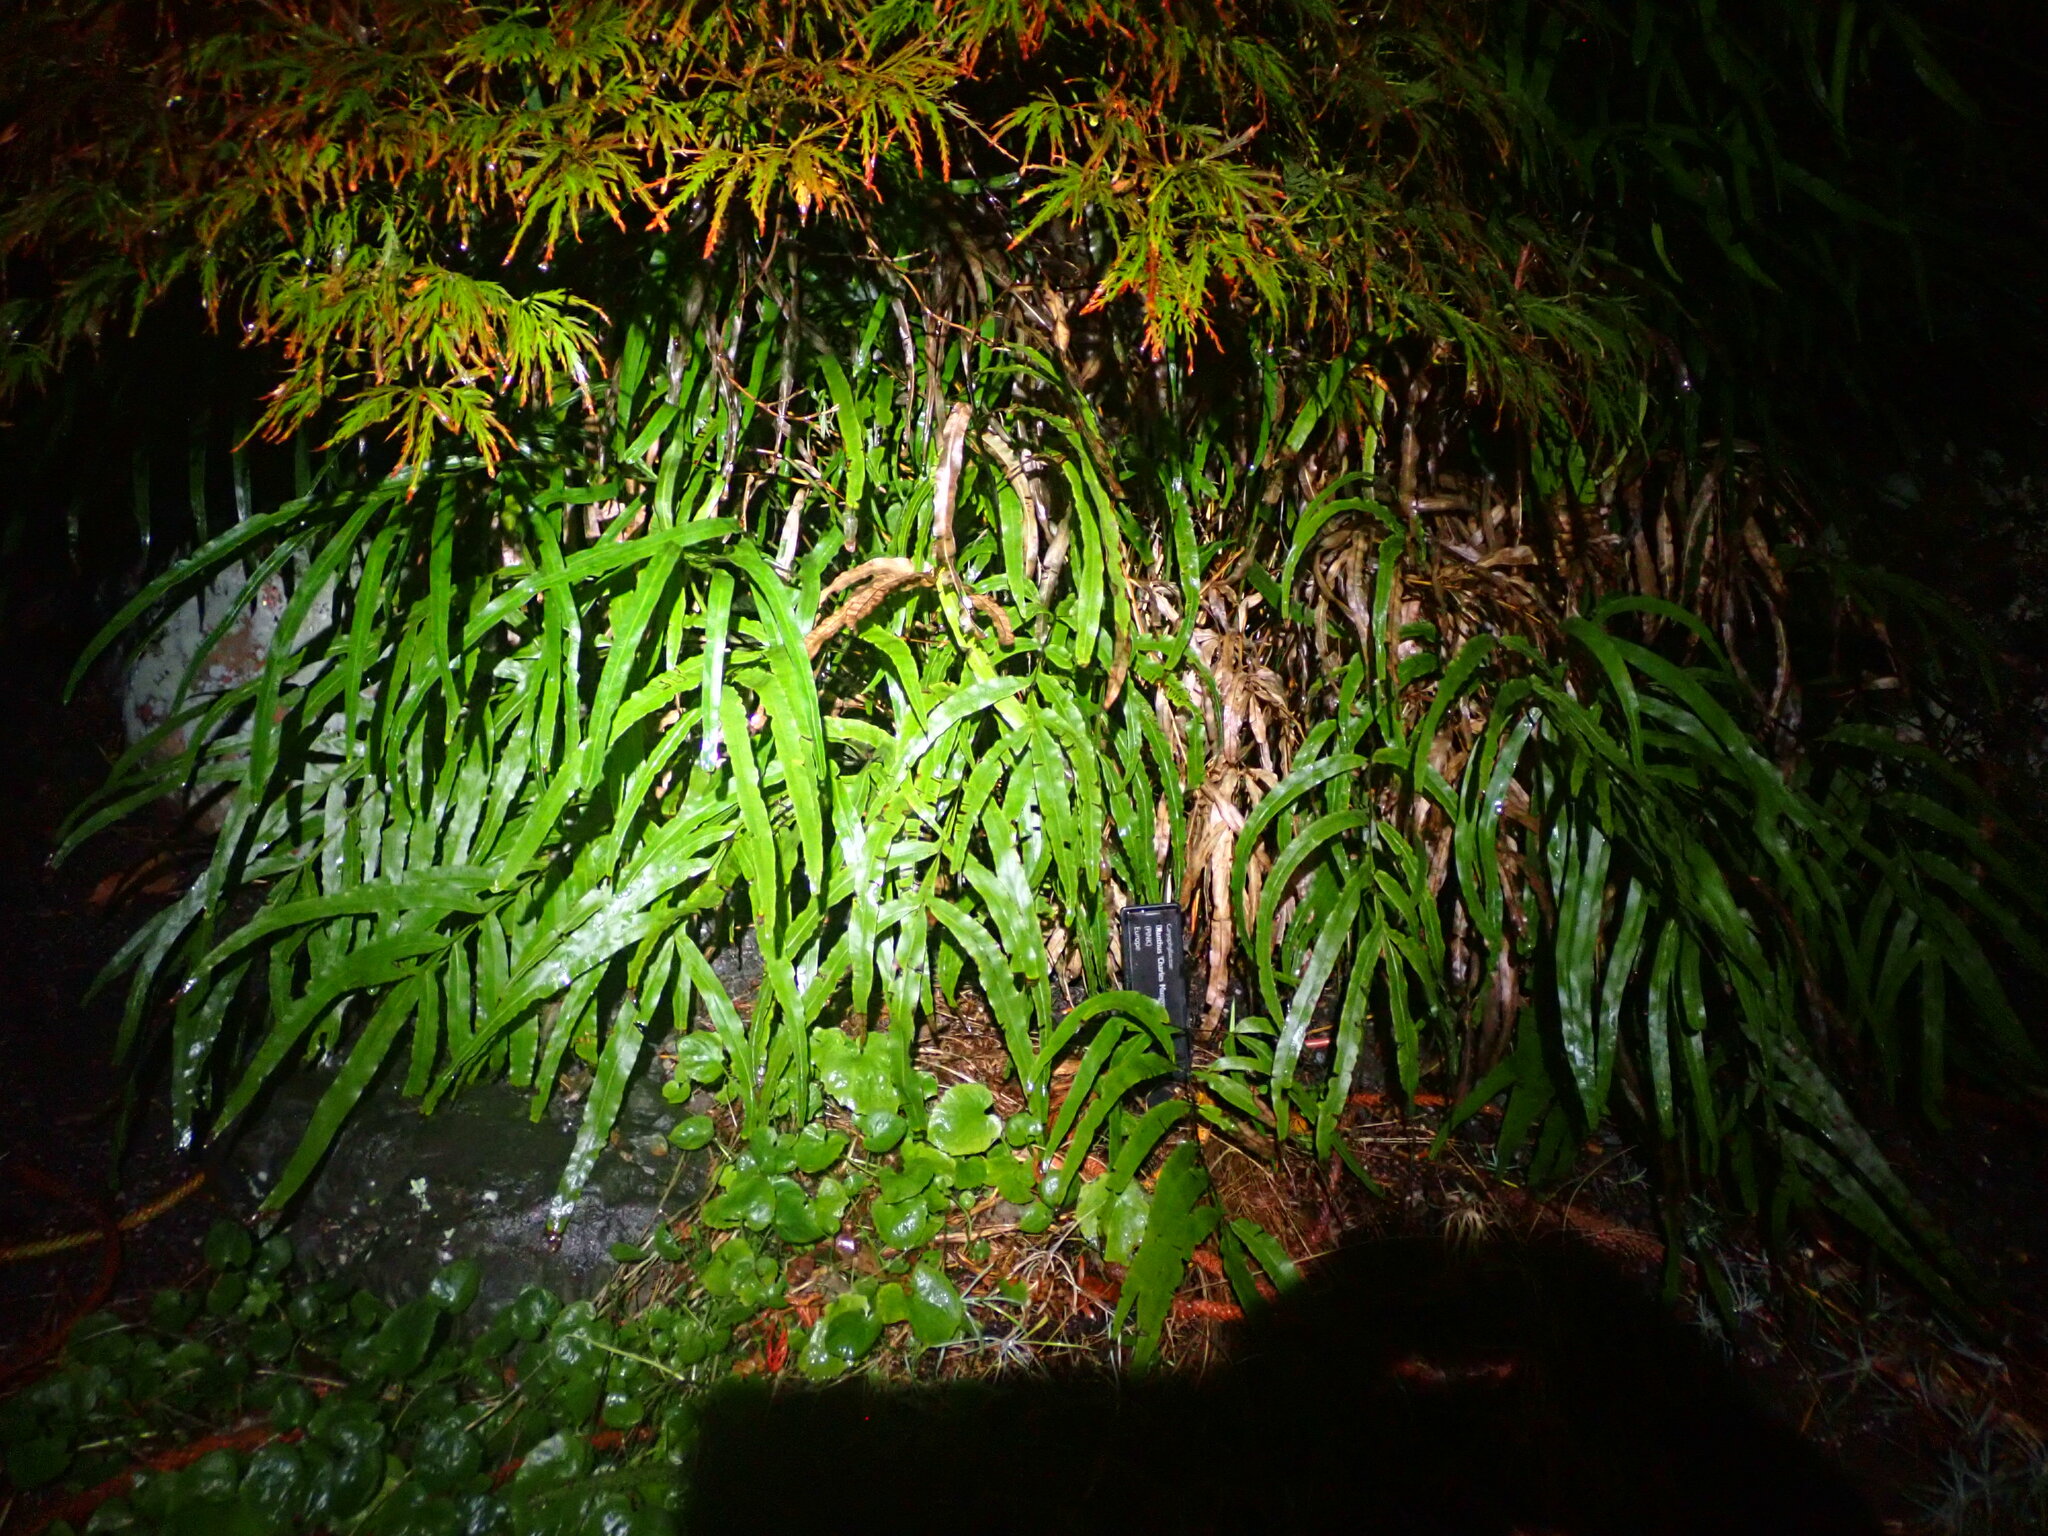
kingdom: Plantae
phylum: Tracheophyta
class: Polypodiopsida
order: Polypodiales
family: Pteridaceae
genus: Pteris
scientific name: Pteris cretica
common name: Ribbon fern
